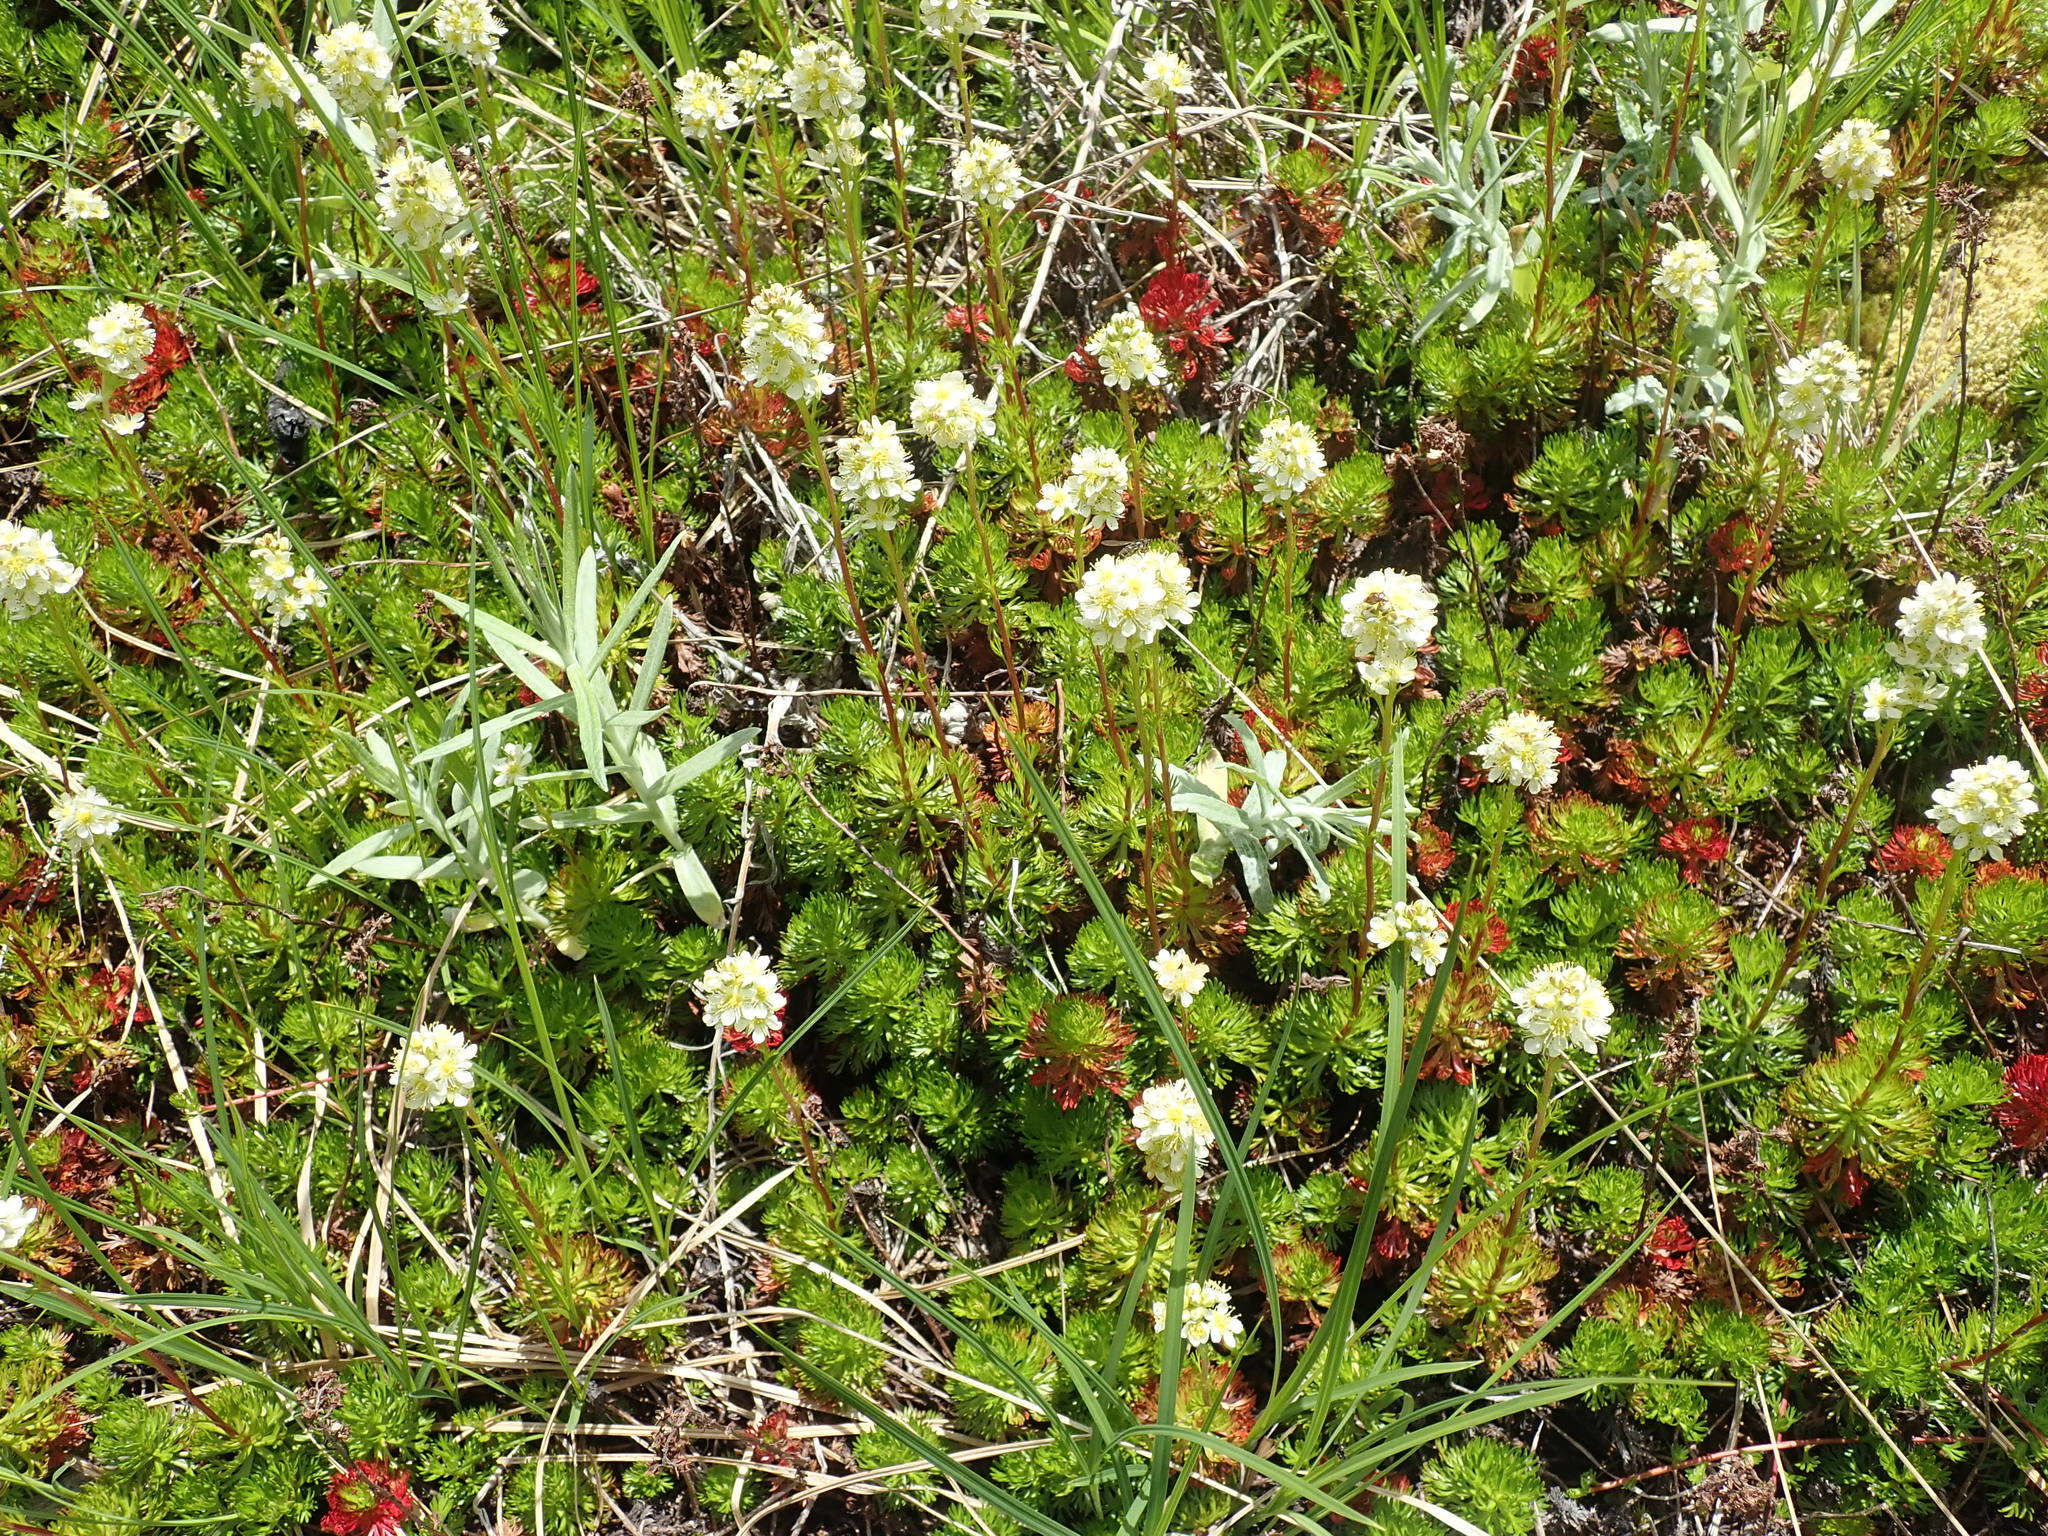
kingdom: Plantae
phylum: Tracheophyta
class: Magnoliopsida
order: Rosales
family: Rosaceae
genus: Luetkea
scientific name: Luetkea pectinata
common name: Partridgefoot
